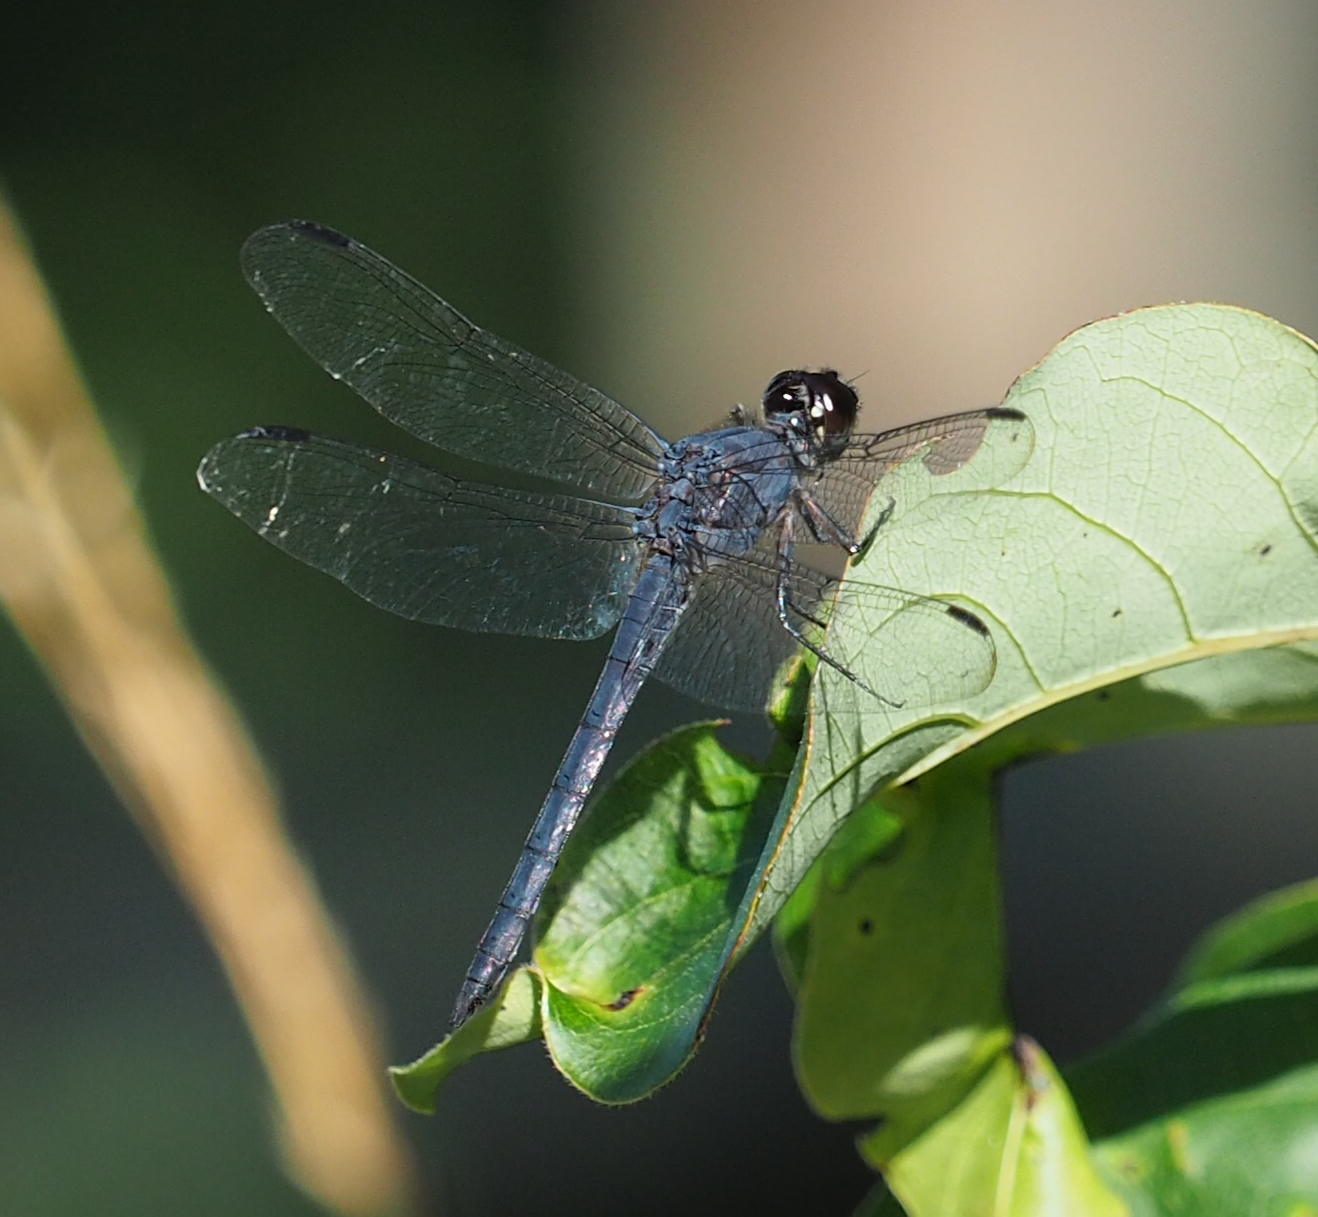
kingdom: Animalia
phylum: Arthropoda
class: Insecta
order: Odonata
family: Libellulidae
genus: Libellula
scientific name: Libellula incesta
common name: Slaty skimmer
